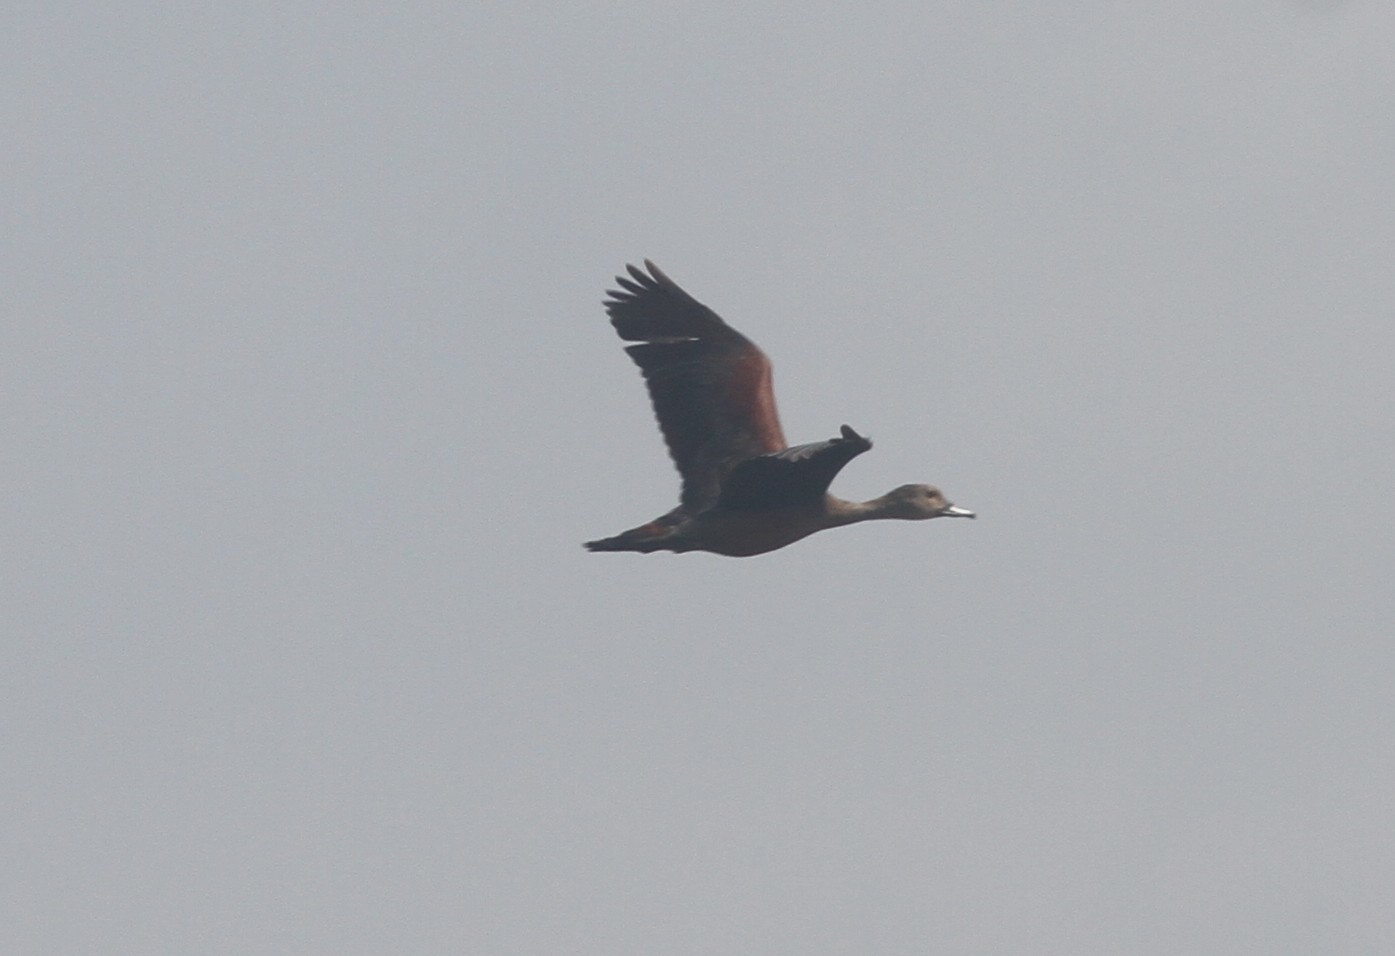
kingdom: Animalia
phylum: Chordata
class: Aves
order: Anseriformes
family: Anatidae
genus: Dendrocygna
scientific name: Dendrocygna javanica
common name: Lesser whistling-duck
